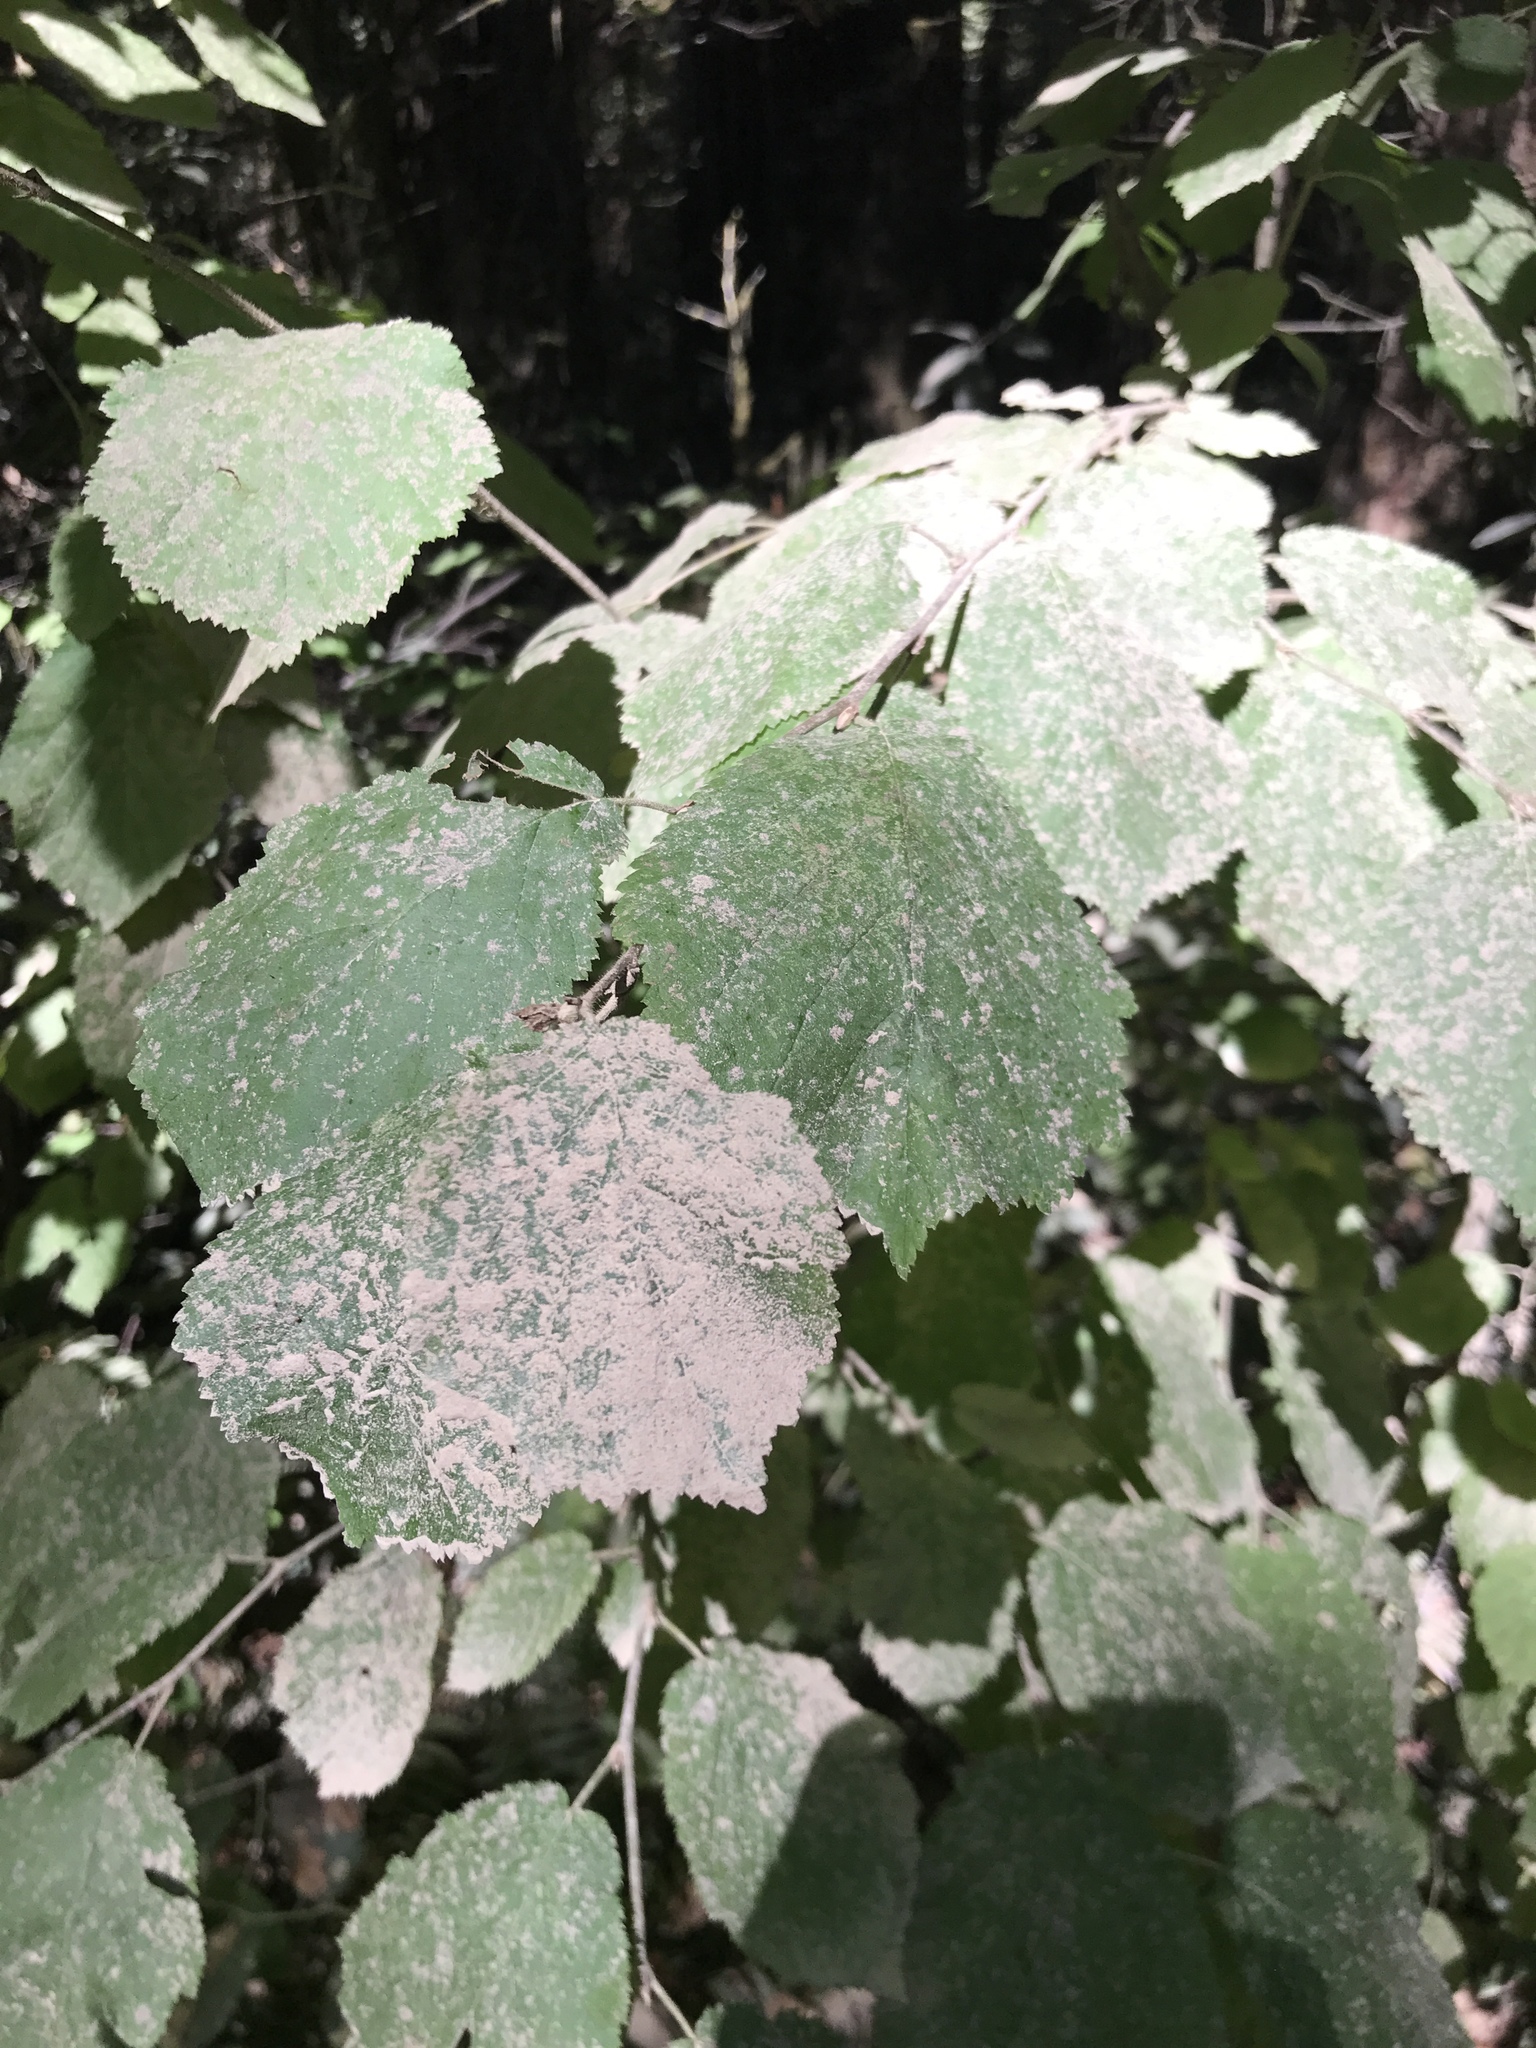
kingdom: Plantae
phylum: Tracheophyta
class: Magnoliopsida
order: Fagales
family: Betulaceae
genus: Corylus
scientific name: Corylus cornuta
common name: Beaked hazel
